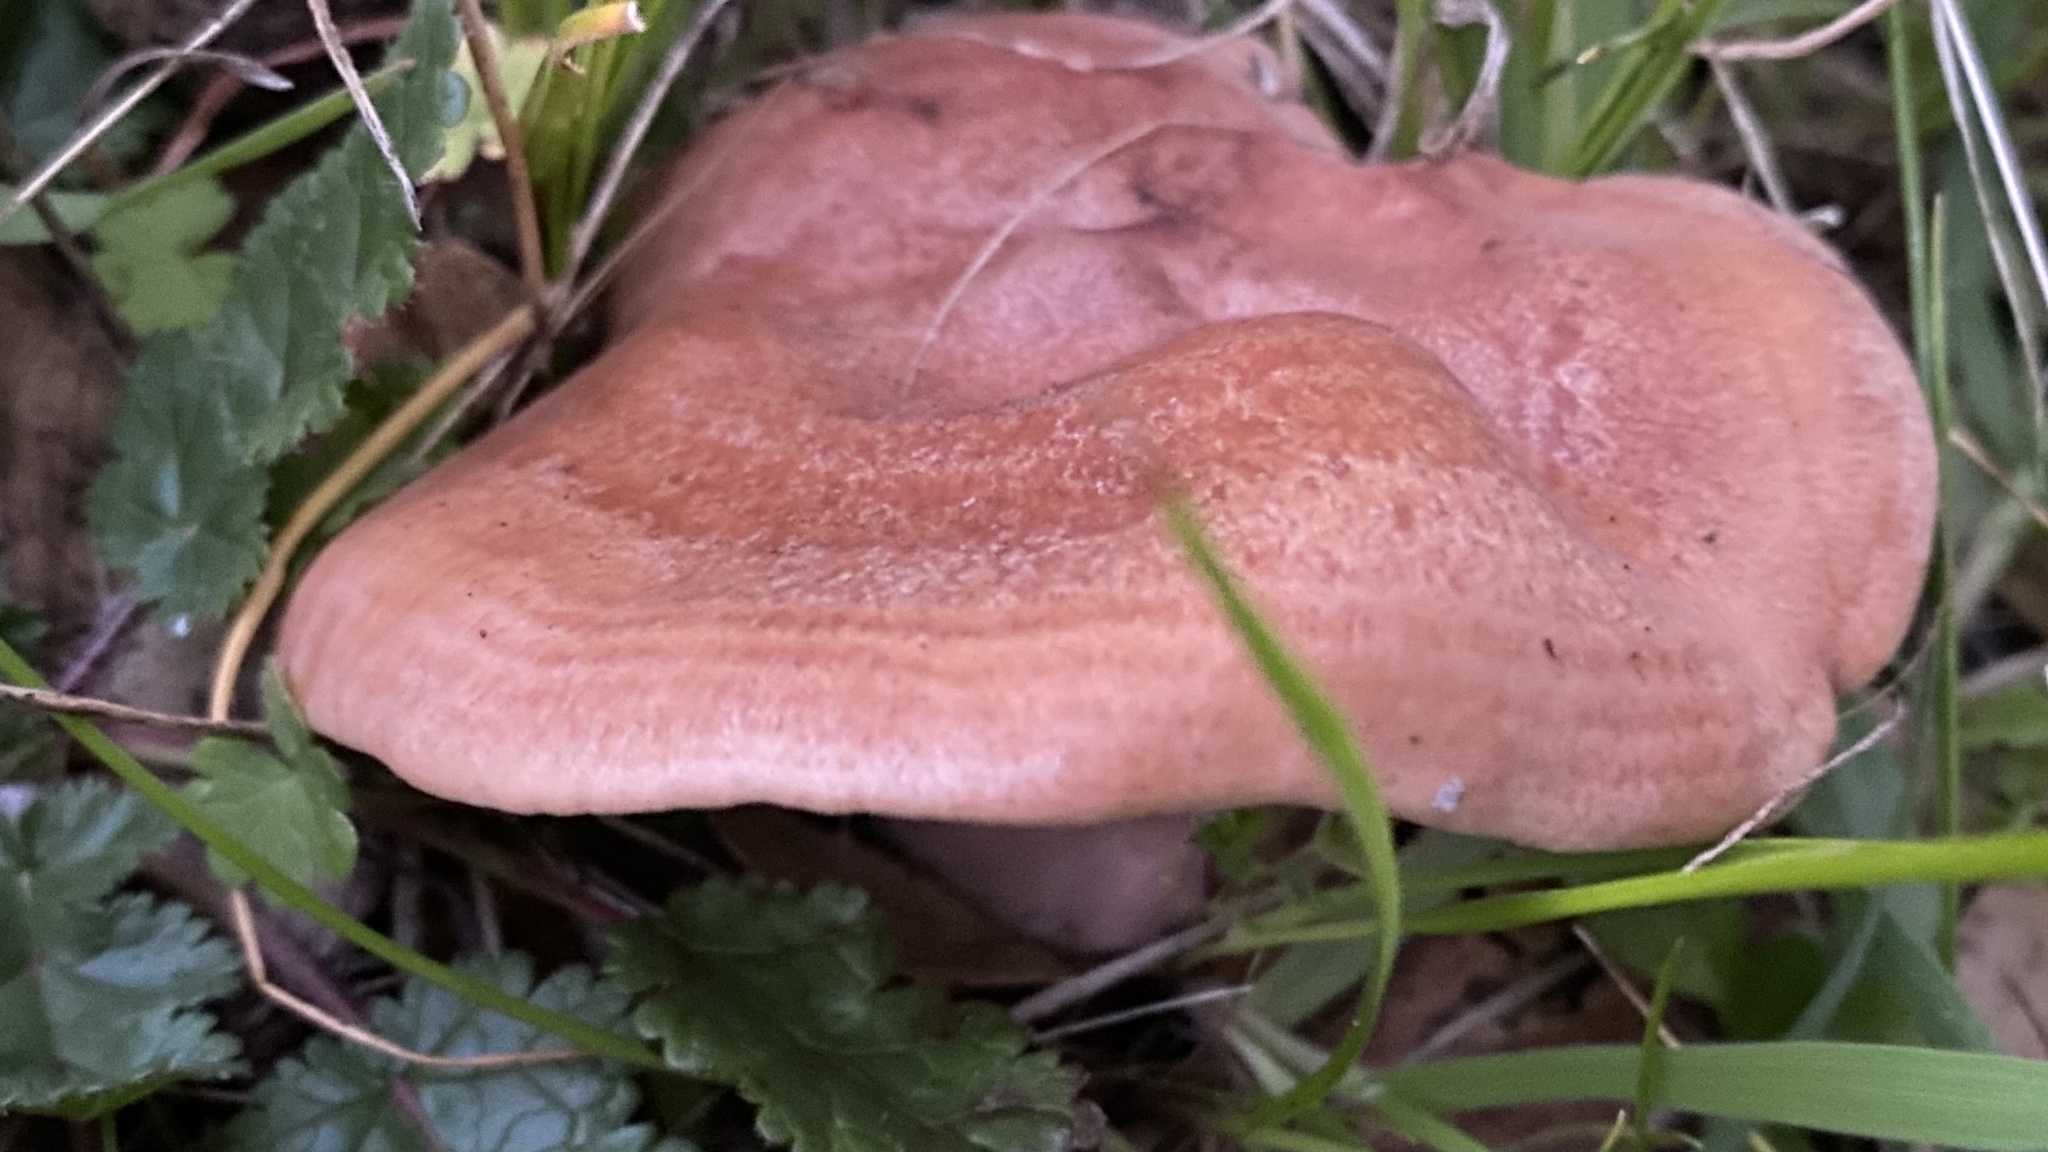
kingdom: Fungi
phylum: Basidiomycota
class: Agaricomycetes
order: Russulales
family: Russulaceae
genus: Lactarius
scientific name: Lactarius xanthogalactus
